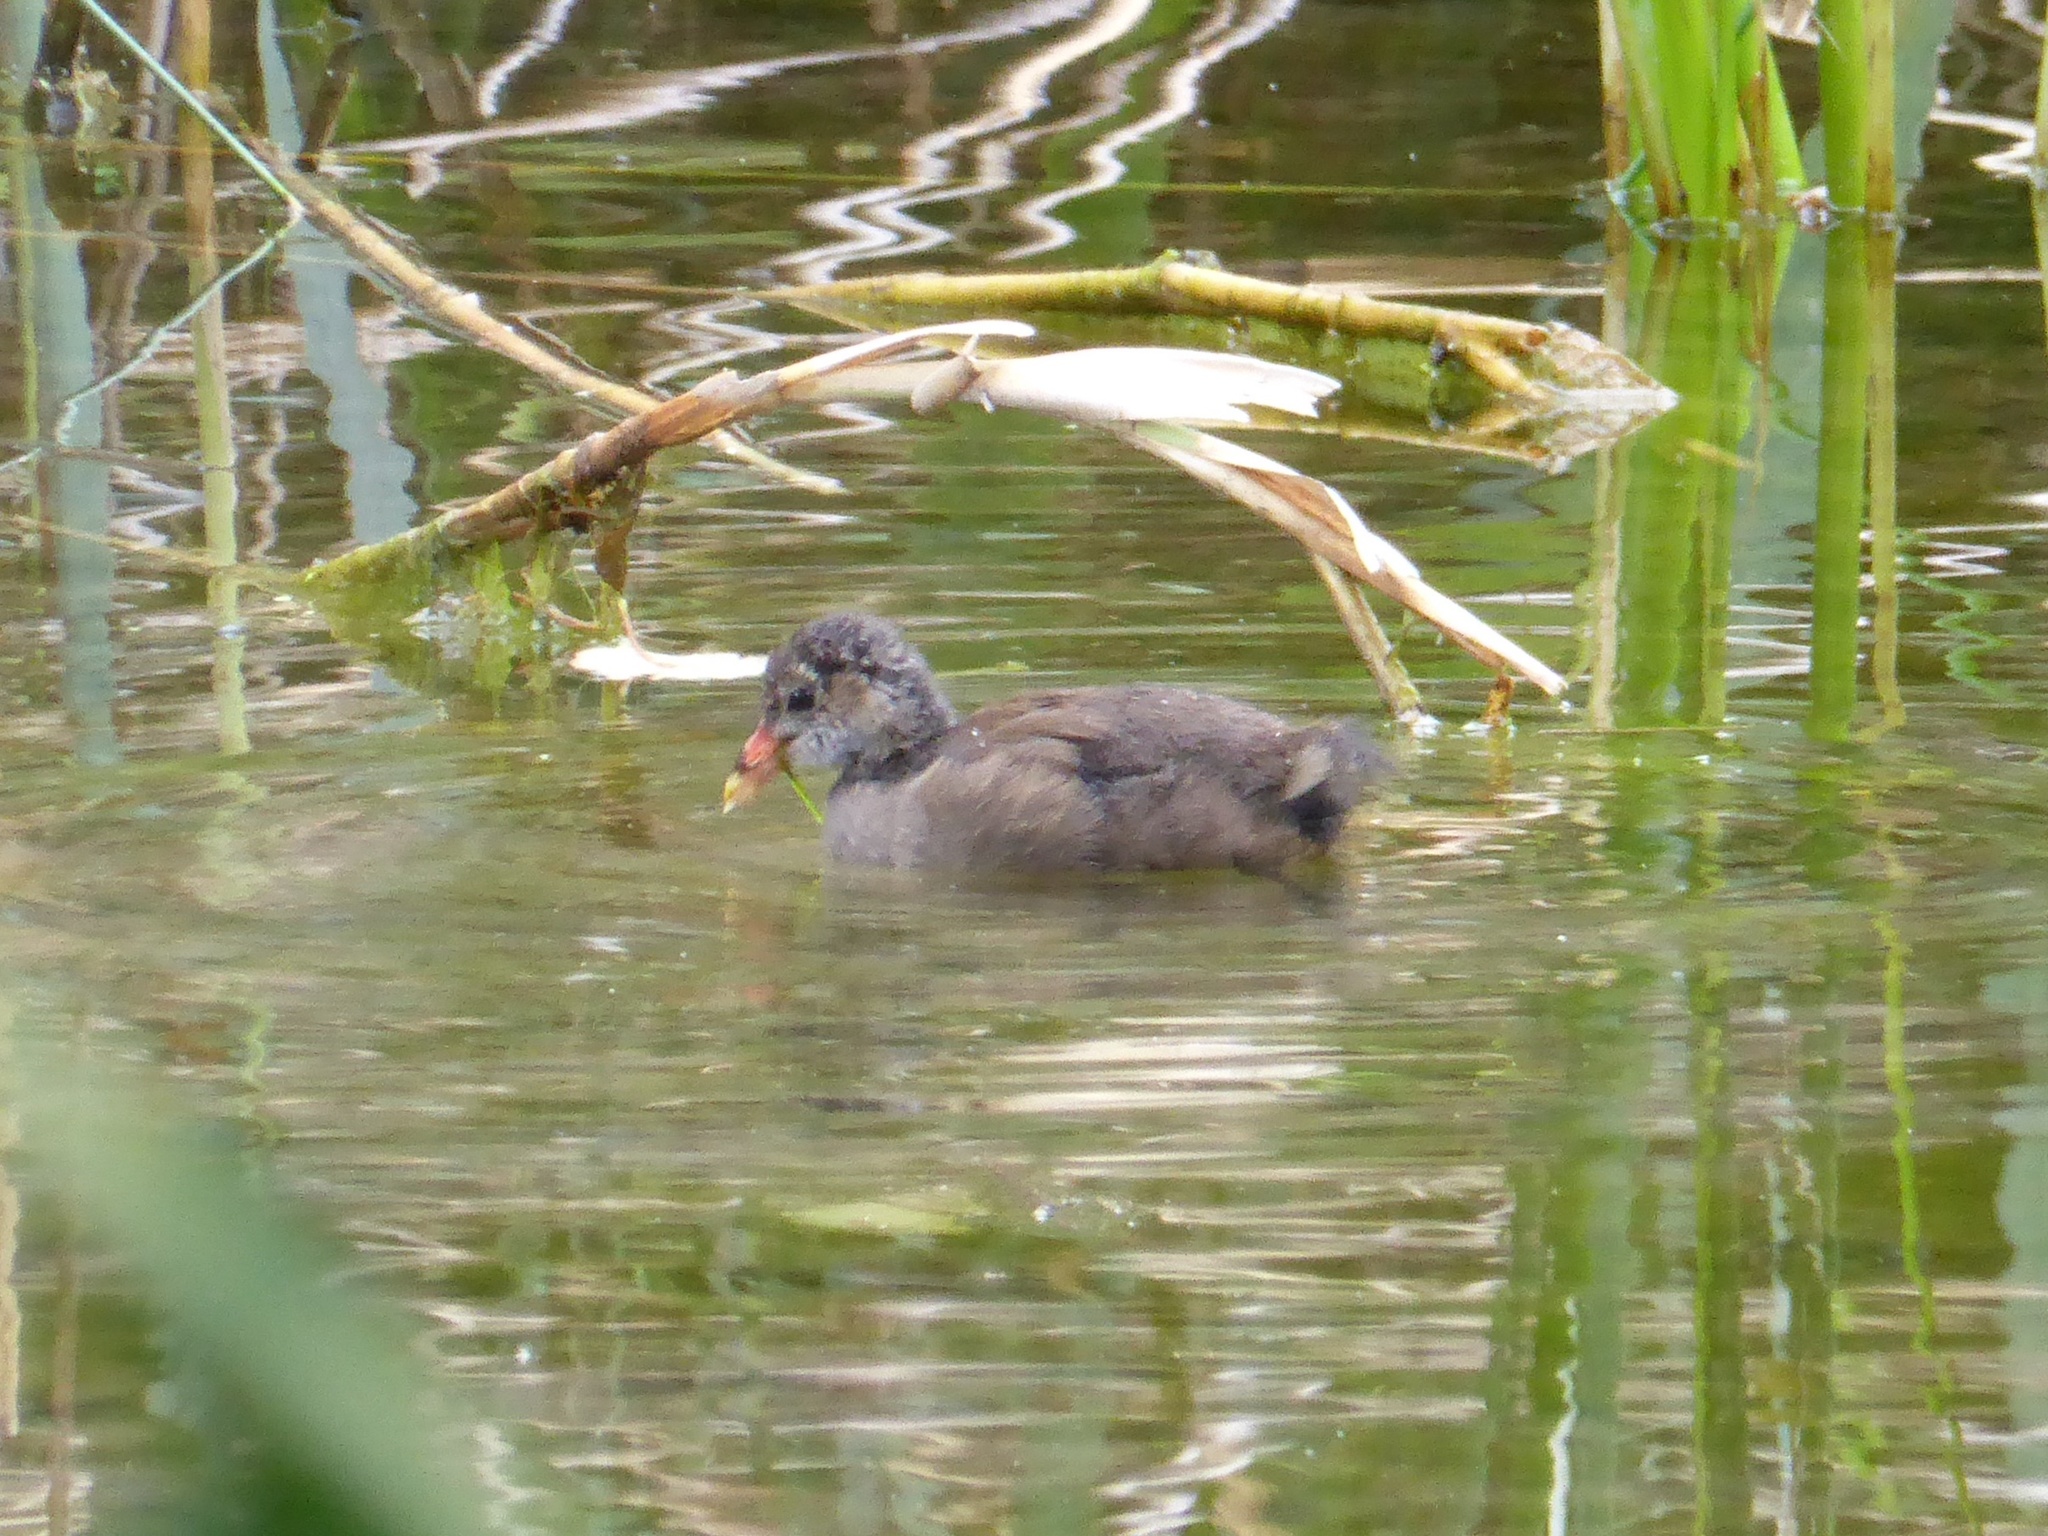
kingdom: Animalia
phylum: Chordata
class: Aves
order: Gruiformes
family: Rallidae
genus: Gallinula
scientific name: Gallinula chloropus
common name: Common moorhen
